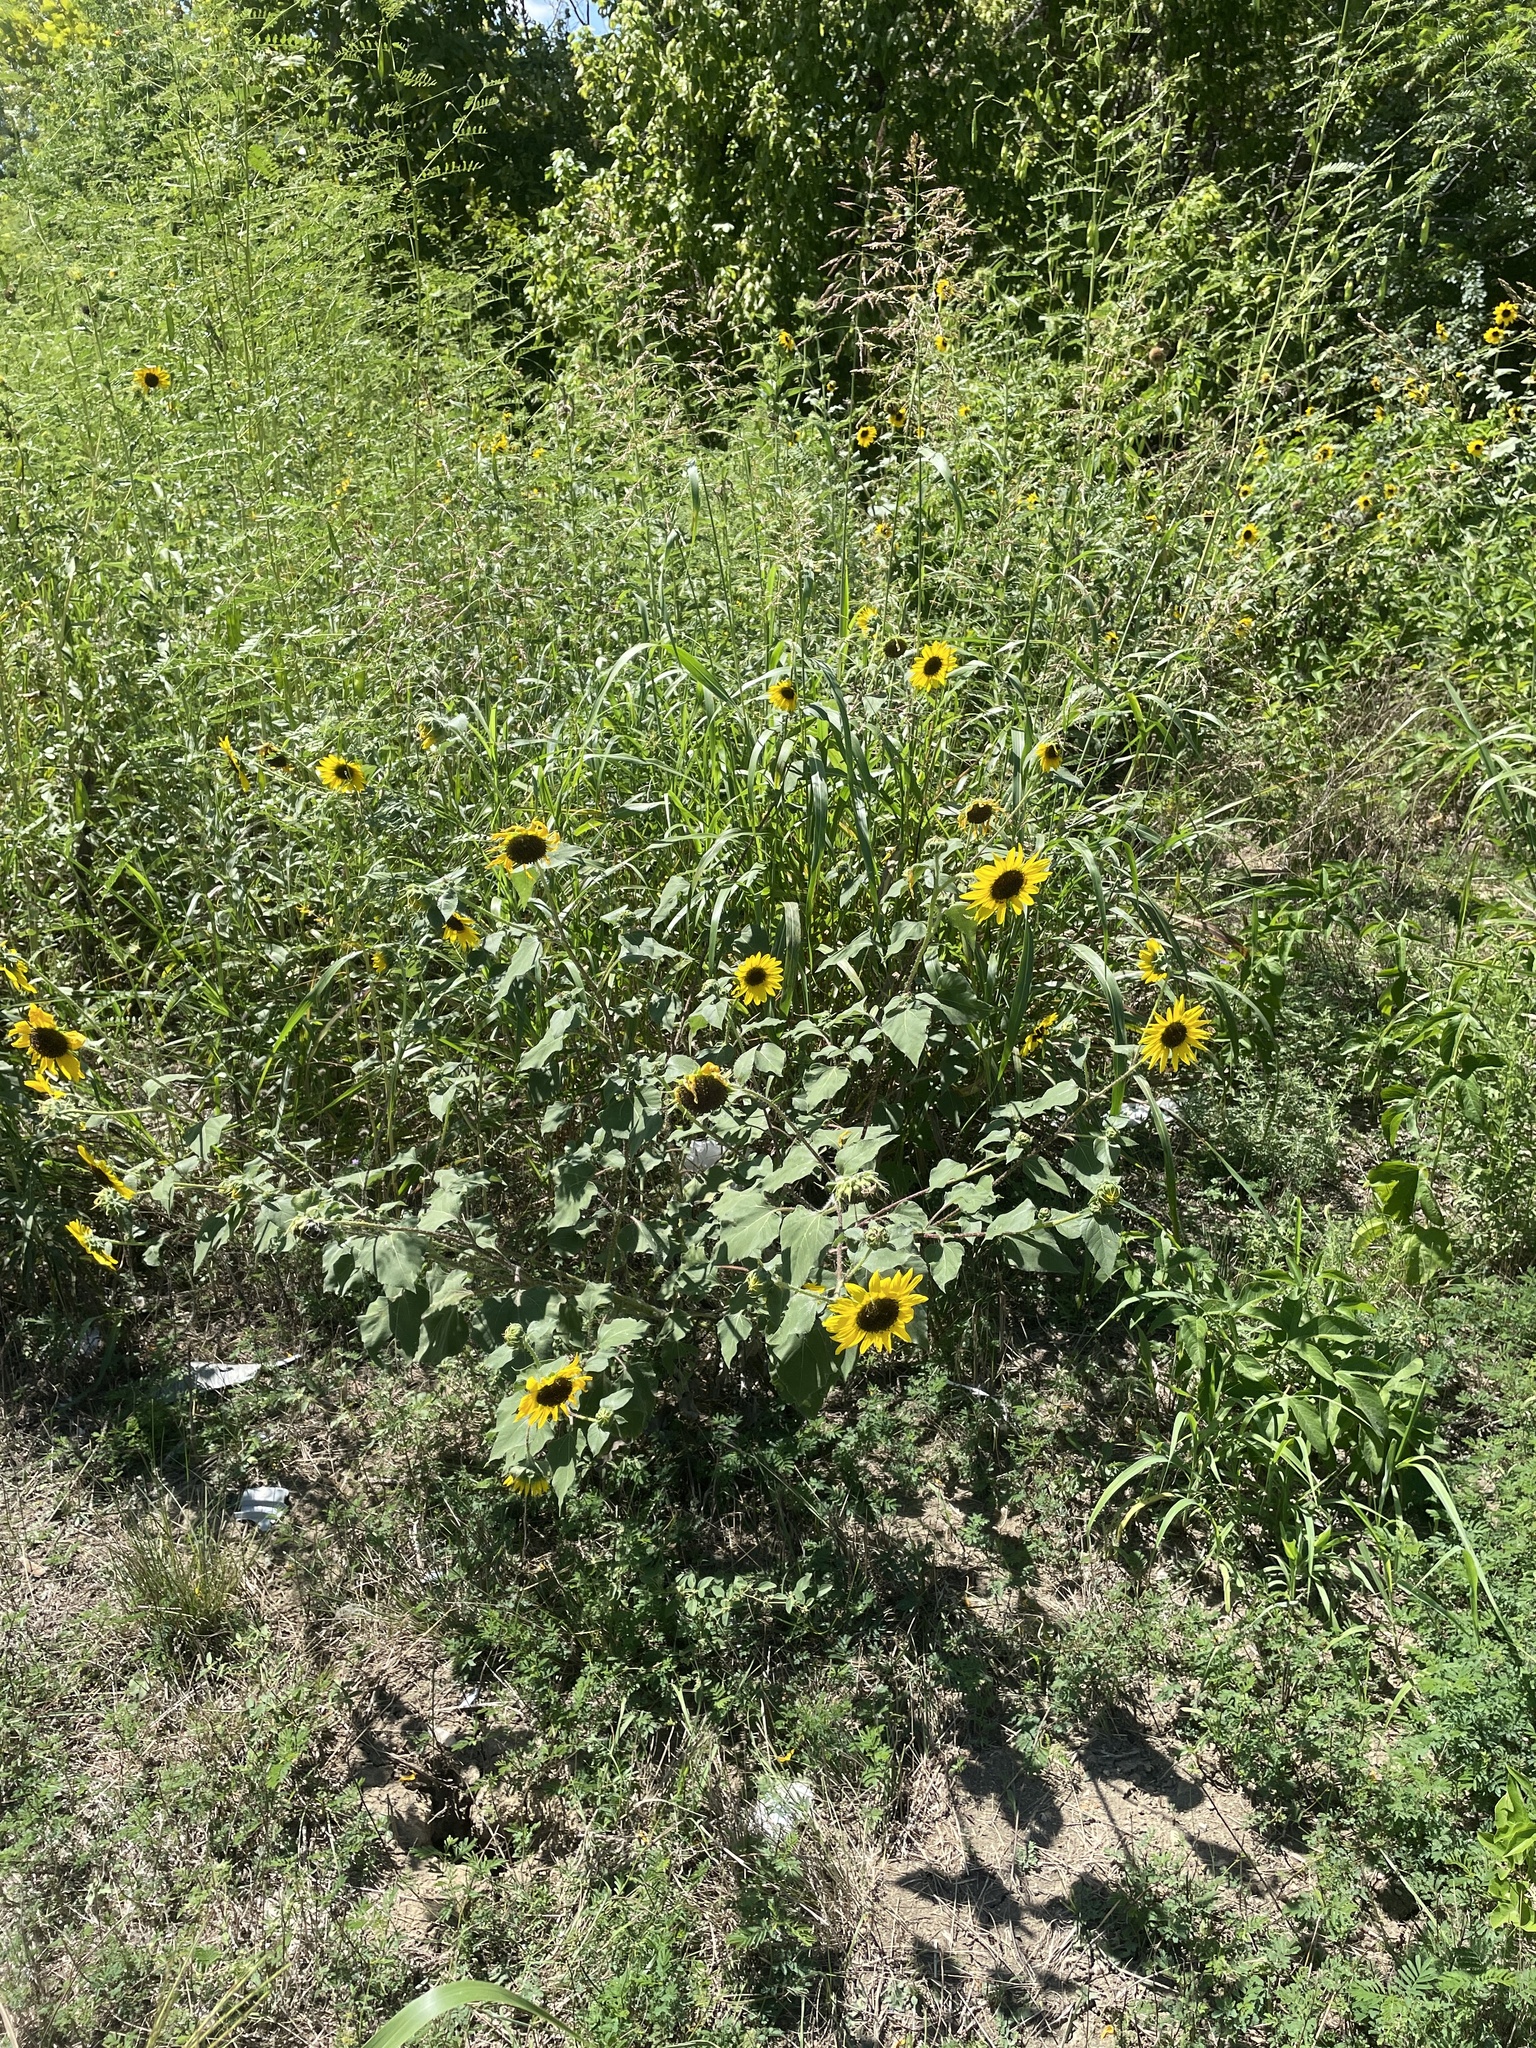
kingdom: Plantae
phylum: Tracheophyta
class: Magnoliopsida
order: Asterales
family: Asteraceae
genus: Helianthus
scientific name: Helianthus annuus
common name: Sunflower
